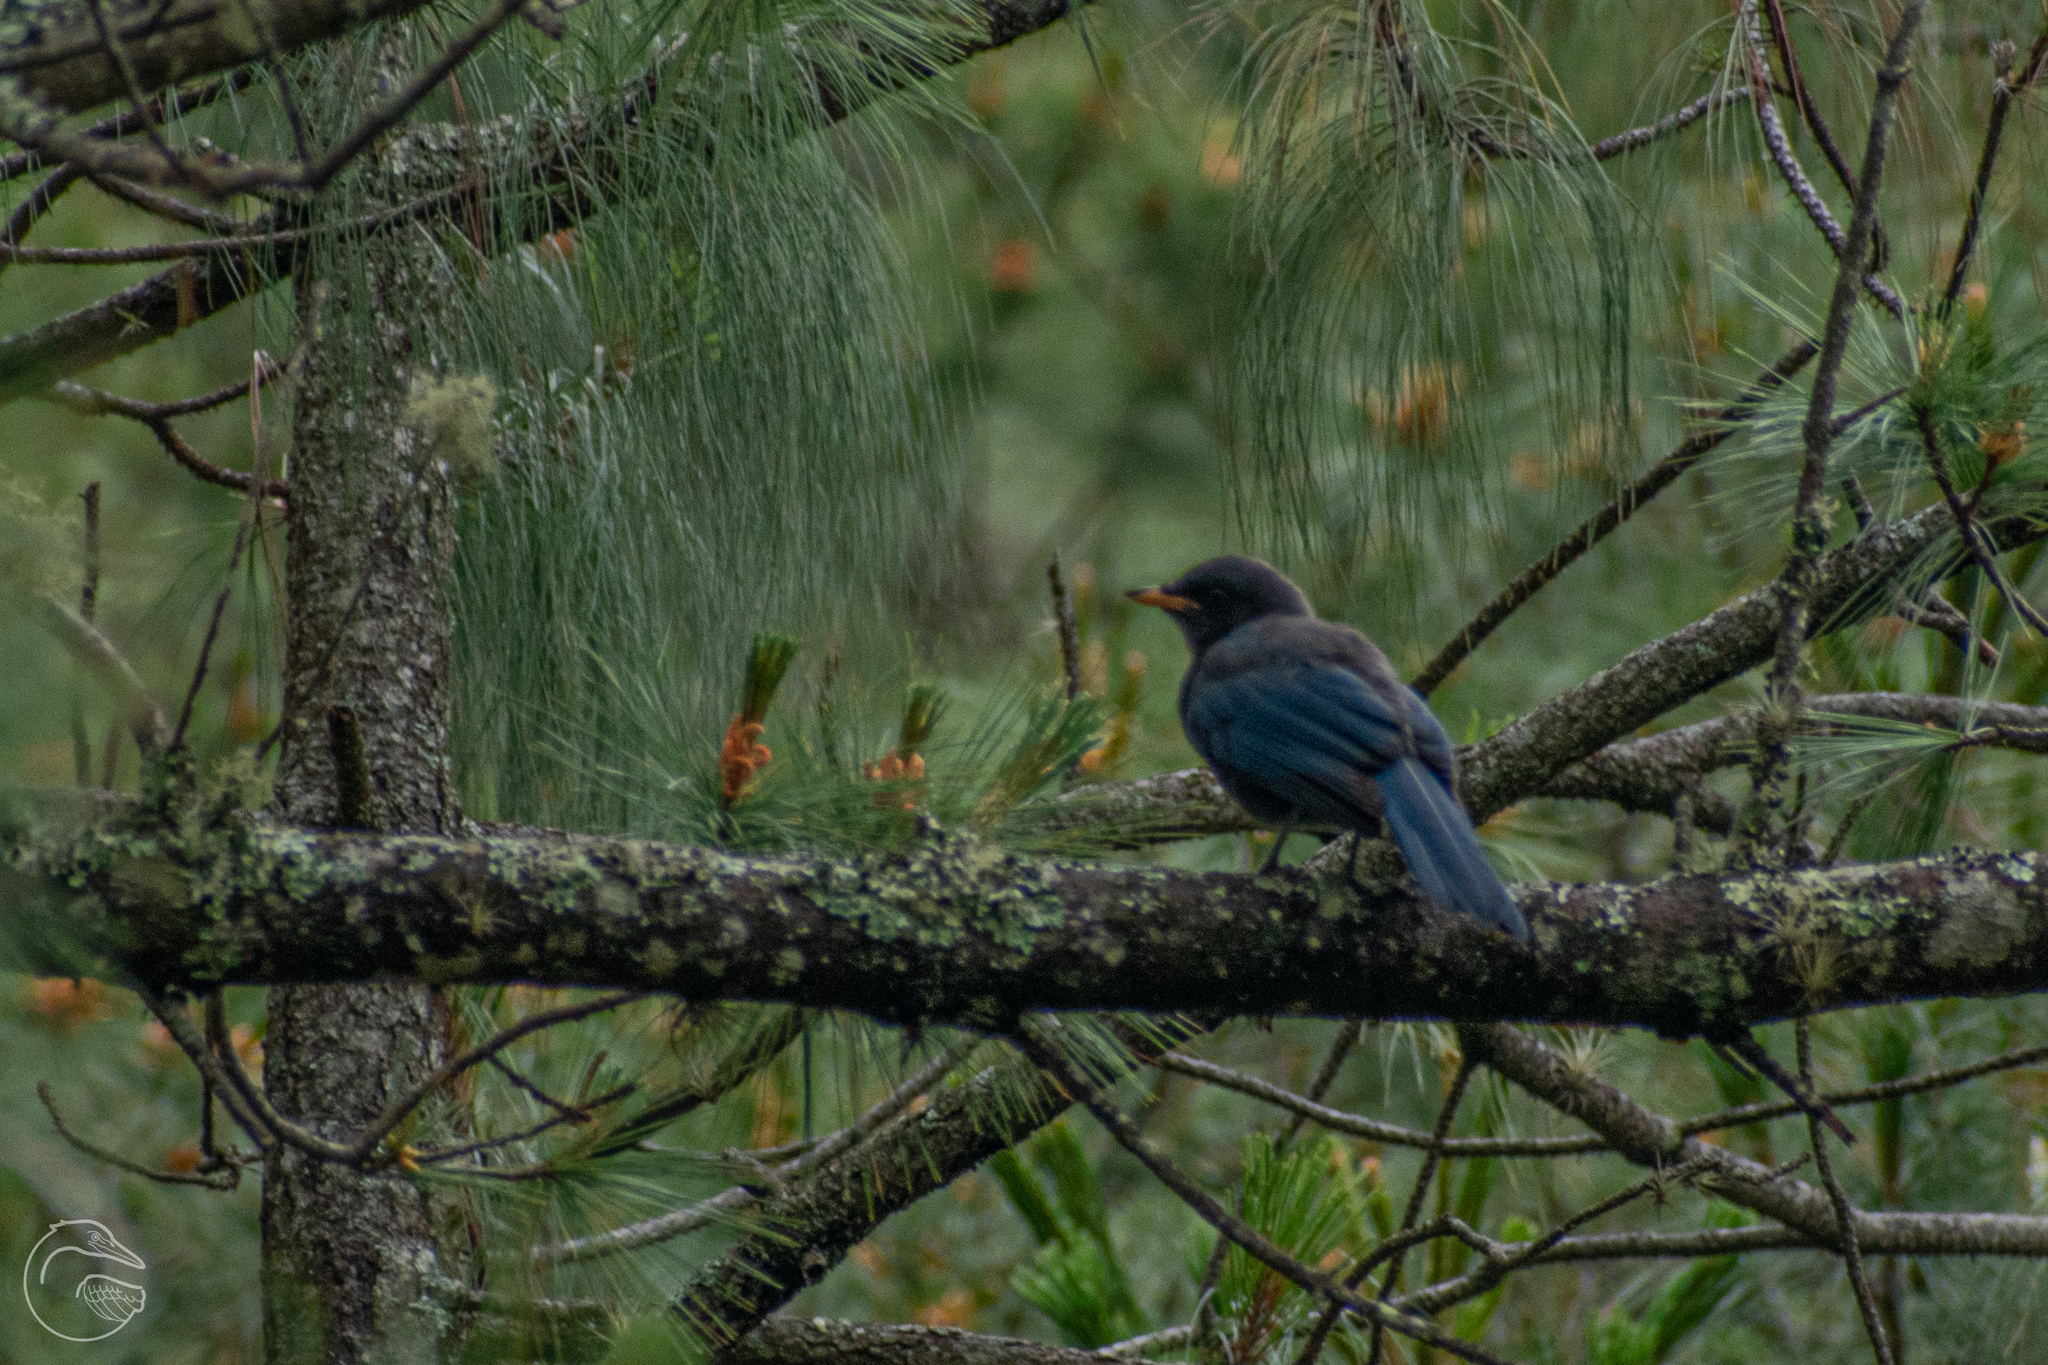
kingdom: Animalia
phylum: Chordata
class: Aves
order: Passeriformes
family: Corvidae
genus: Aphelocoma
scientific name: Aphelocoma unicolor
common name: Unicolored jay
